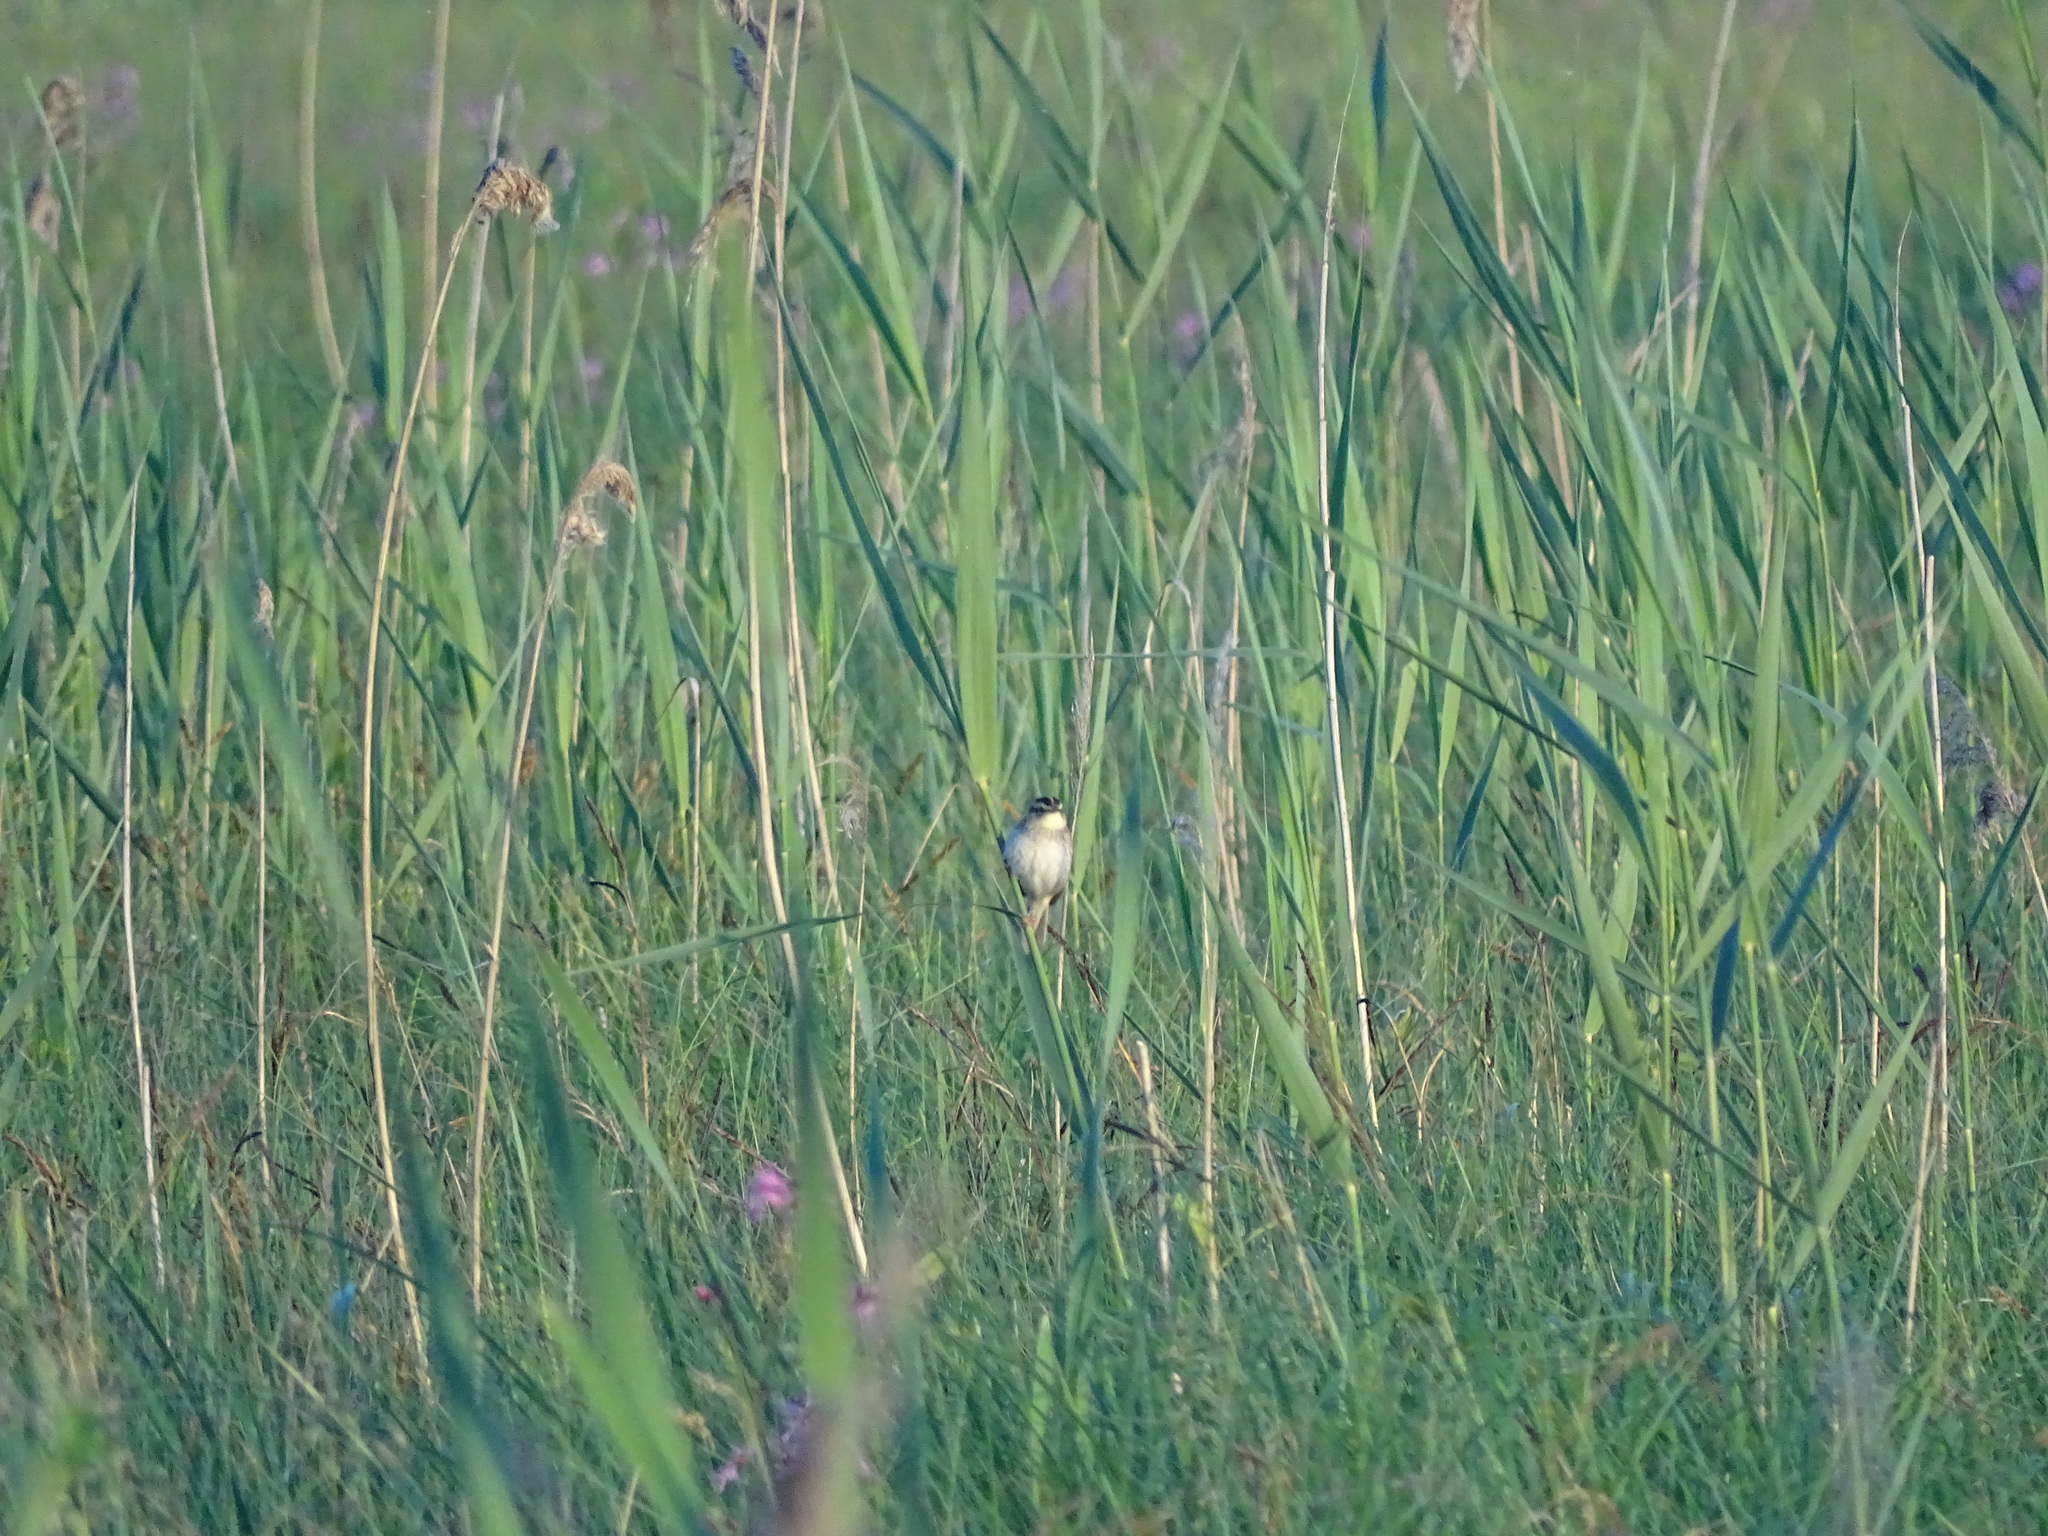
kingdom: Animalia
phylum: Chordata
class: Aves
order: Passeriformes
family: Acrocephalidae
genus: Acrocephalus
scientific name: Acrocephalus paludicola
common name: Aquatic warbler
